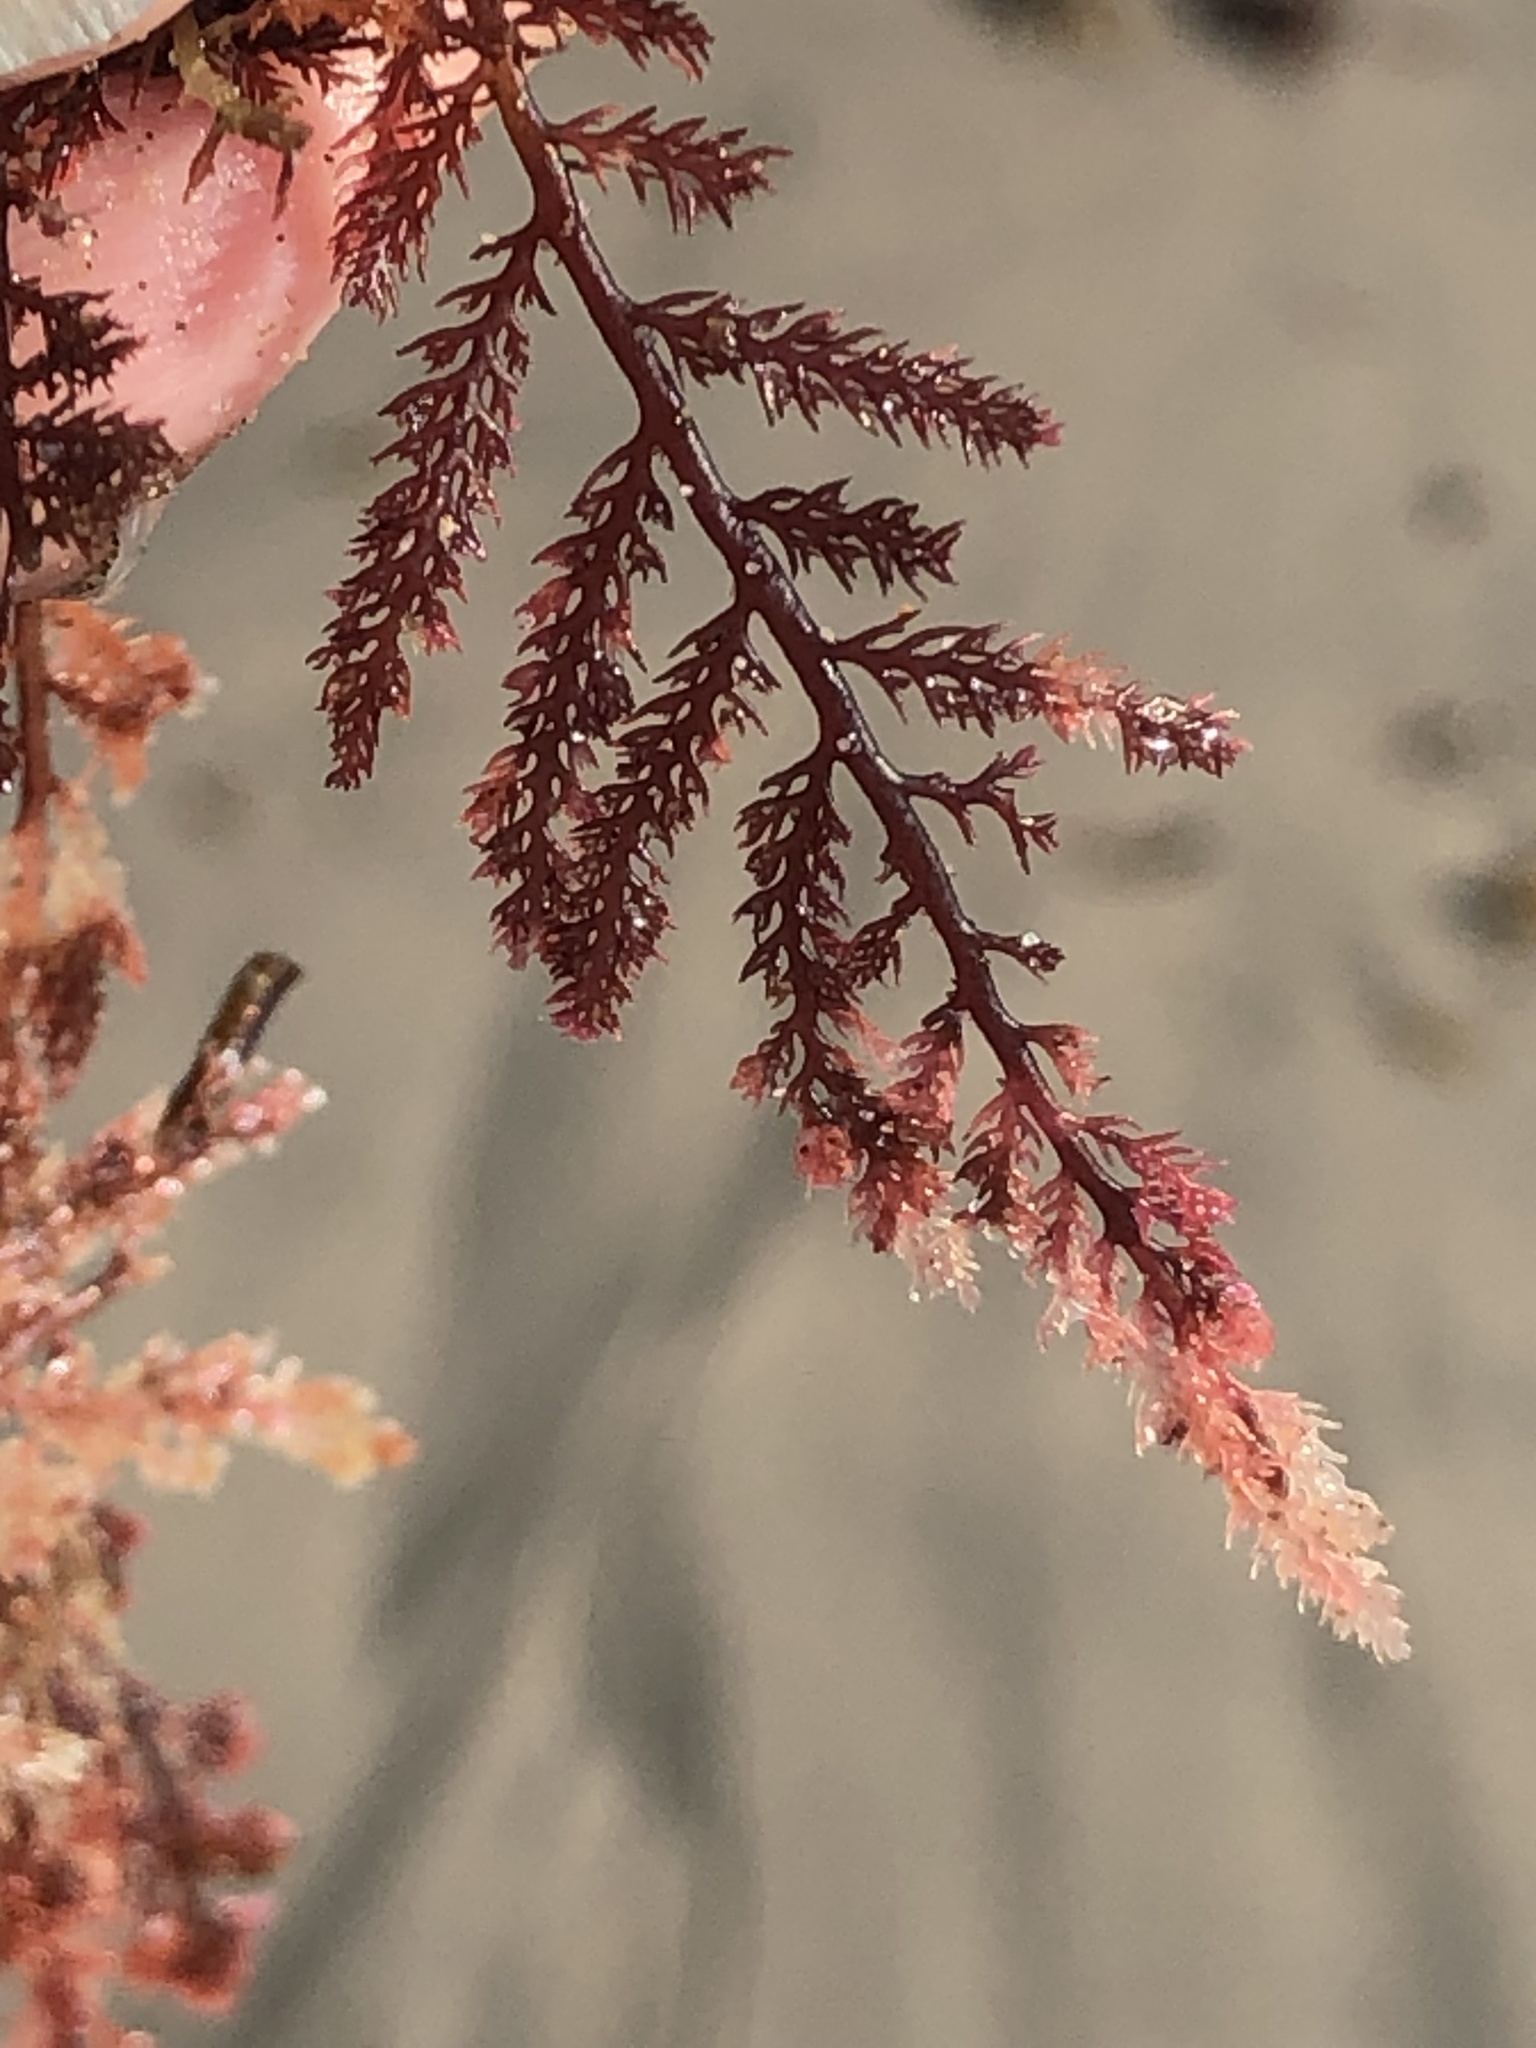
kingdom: Plantae
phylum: Rhodophyta
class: Florideophyceae
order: Ceramiales
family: Ceramiaceae
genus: Microcladia
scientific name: Microcladia coulteri
